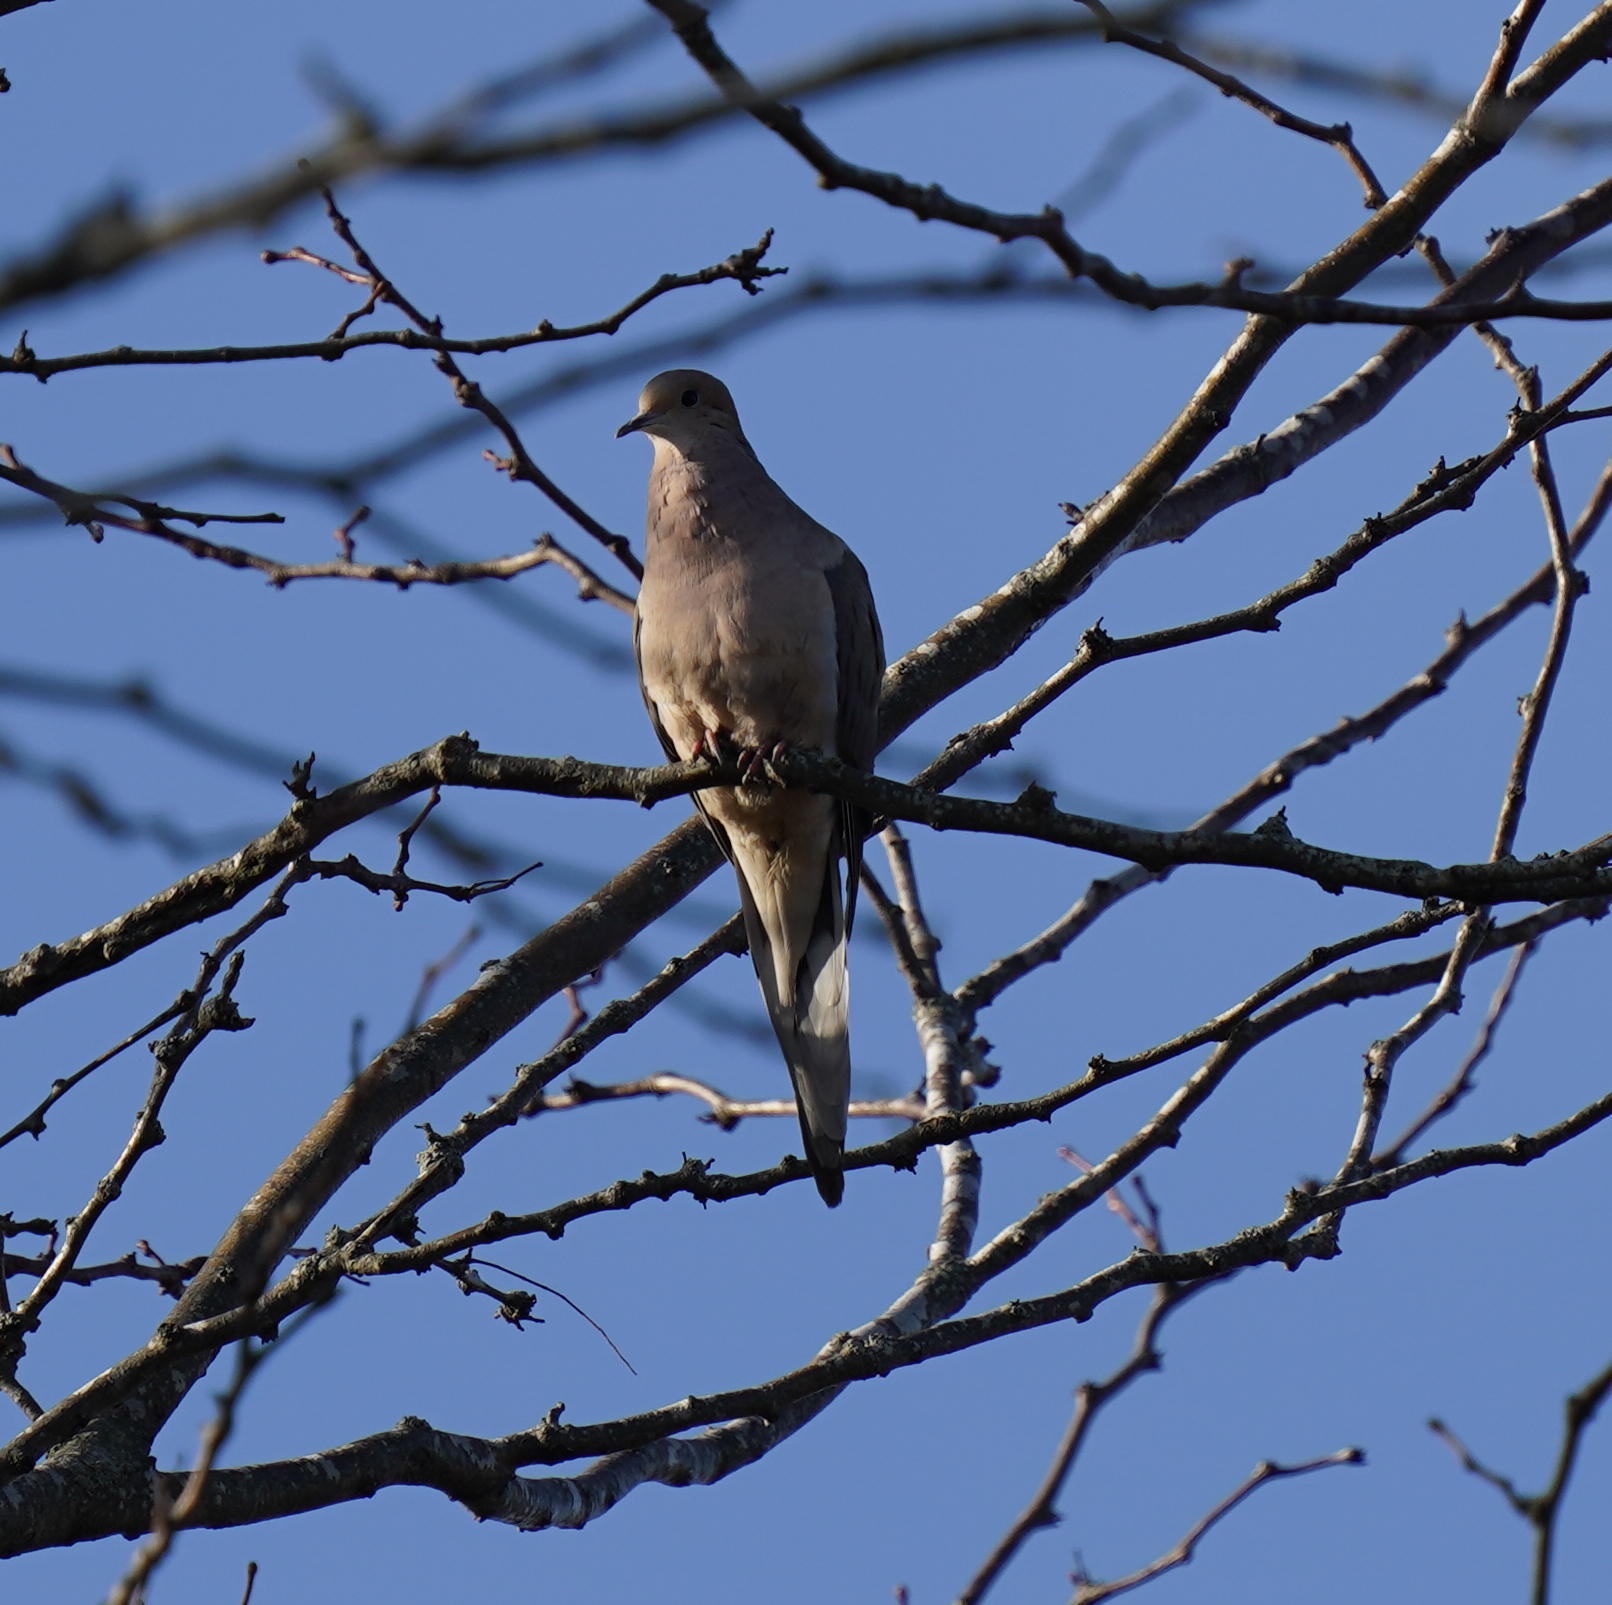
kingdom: Animalia
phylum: Chordata
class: Aves
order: Columbiformes
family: Columbidae
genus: Zenaida
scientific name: Zenaida macroura
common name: Mourning dove
